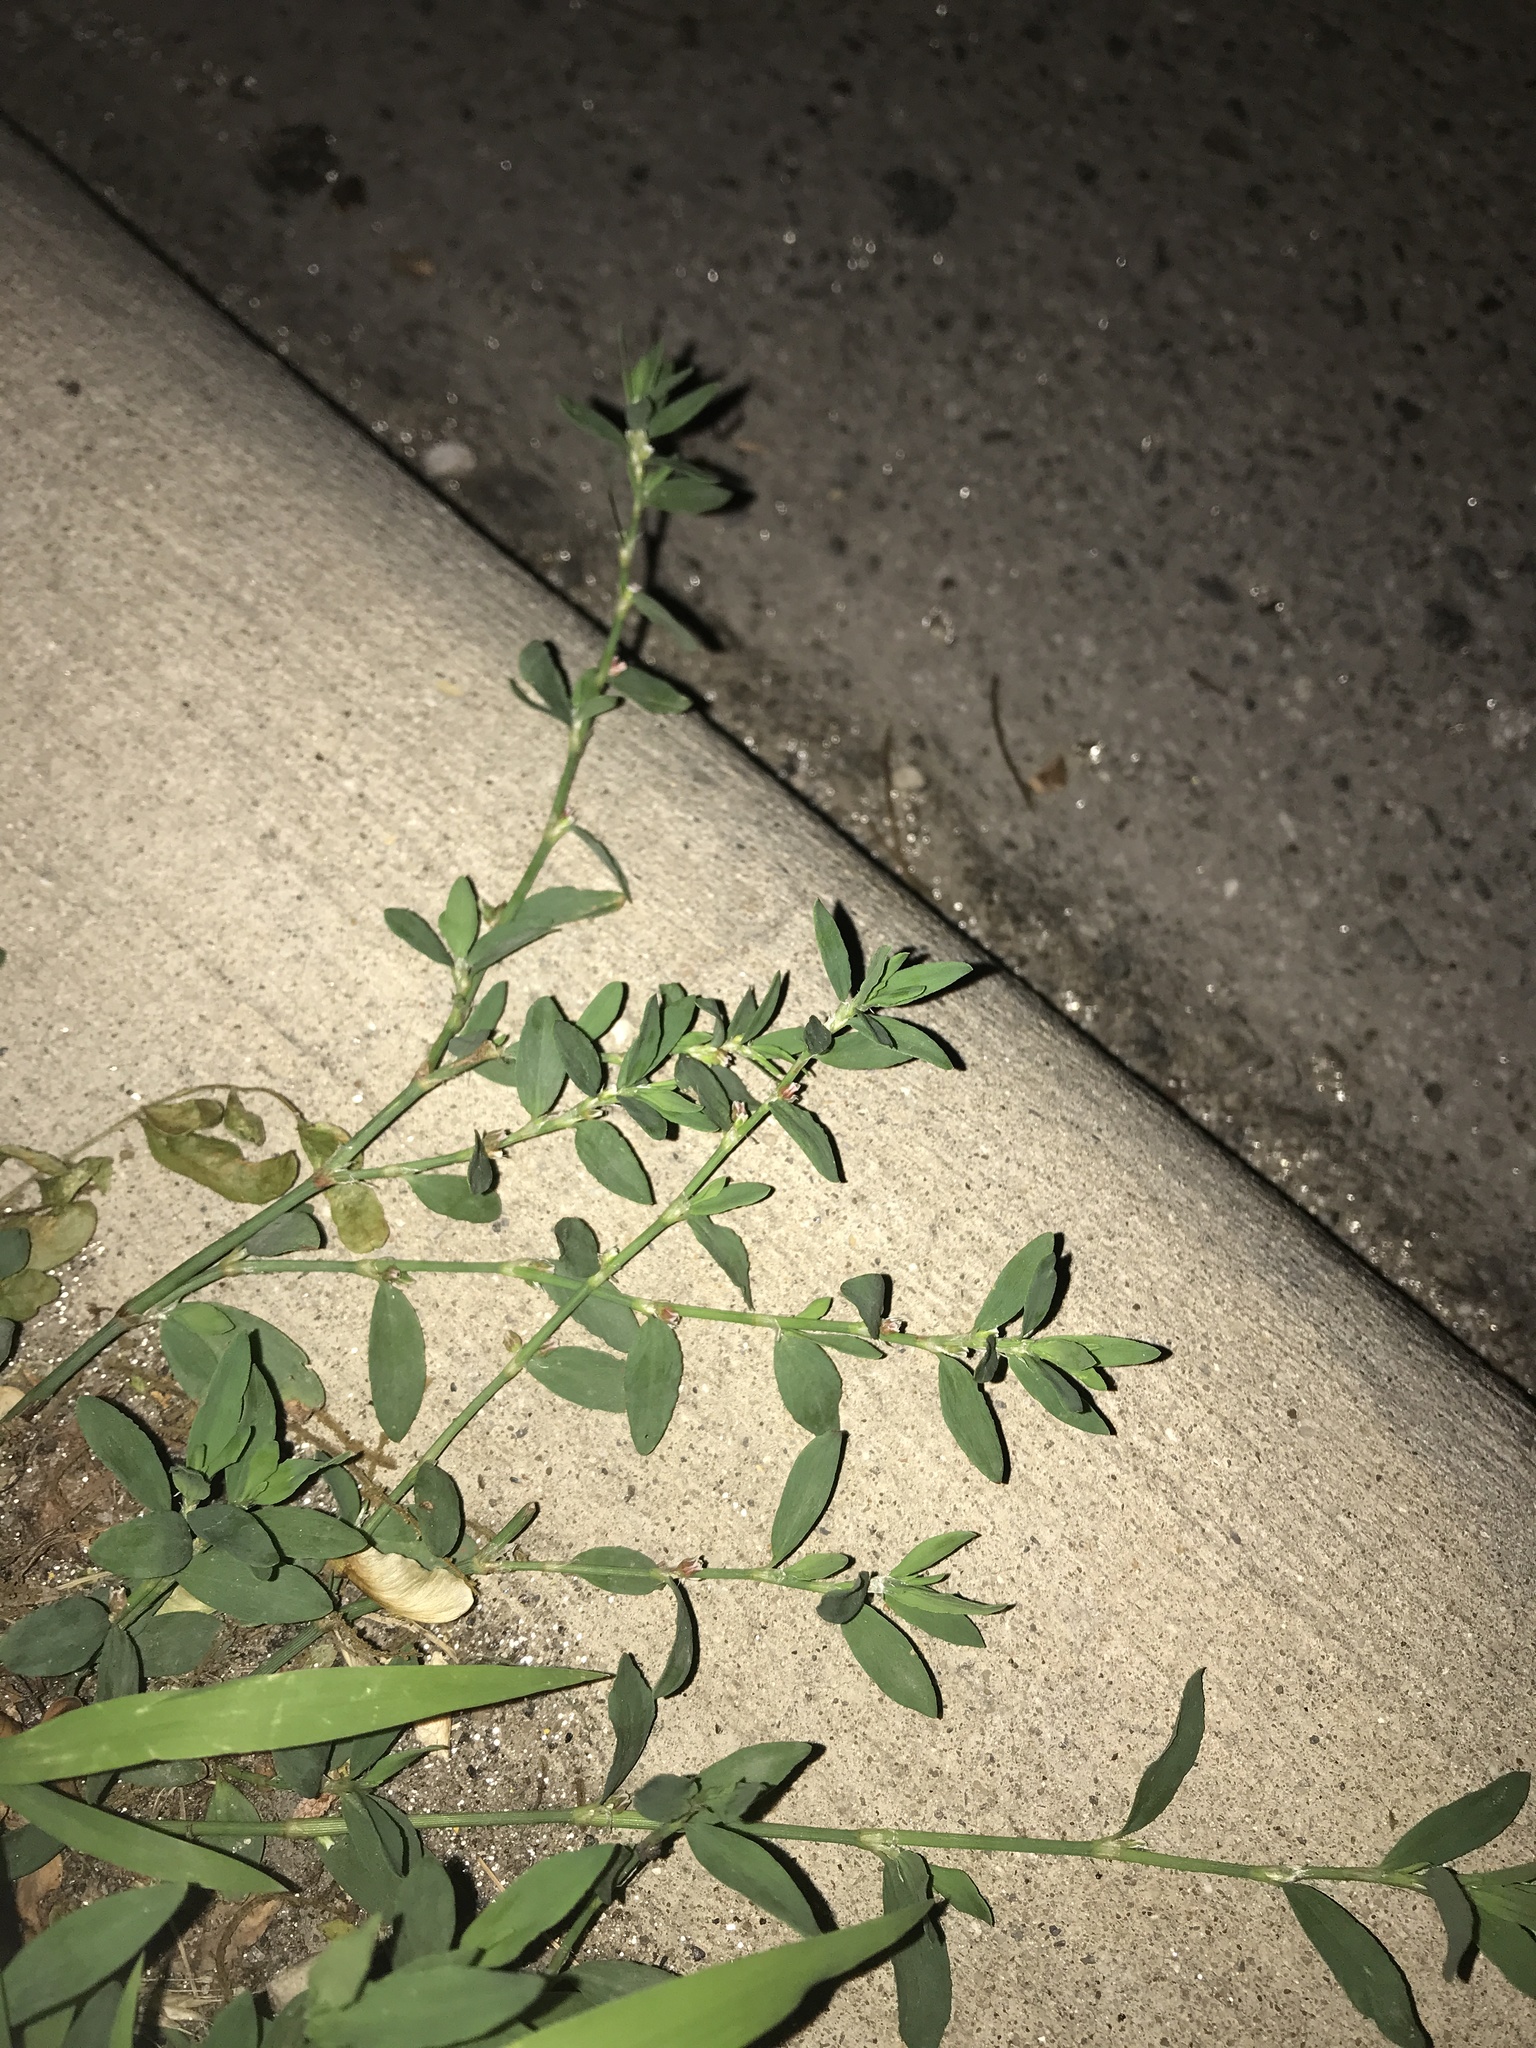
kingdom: Plantae
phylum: Tracheophyta
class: Magnoliopsida
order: Caryophyllales
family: Polygonaceae
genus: Polygonum
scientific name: Polygonum aviculare
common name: Prostrate knotweed
